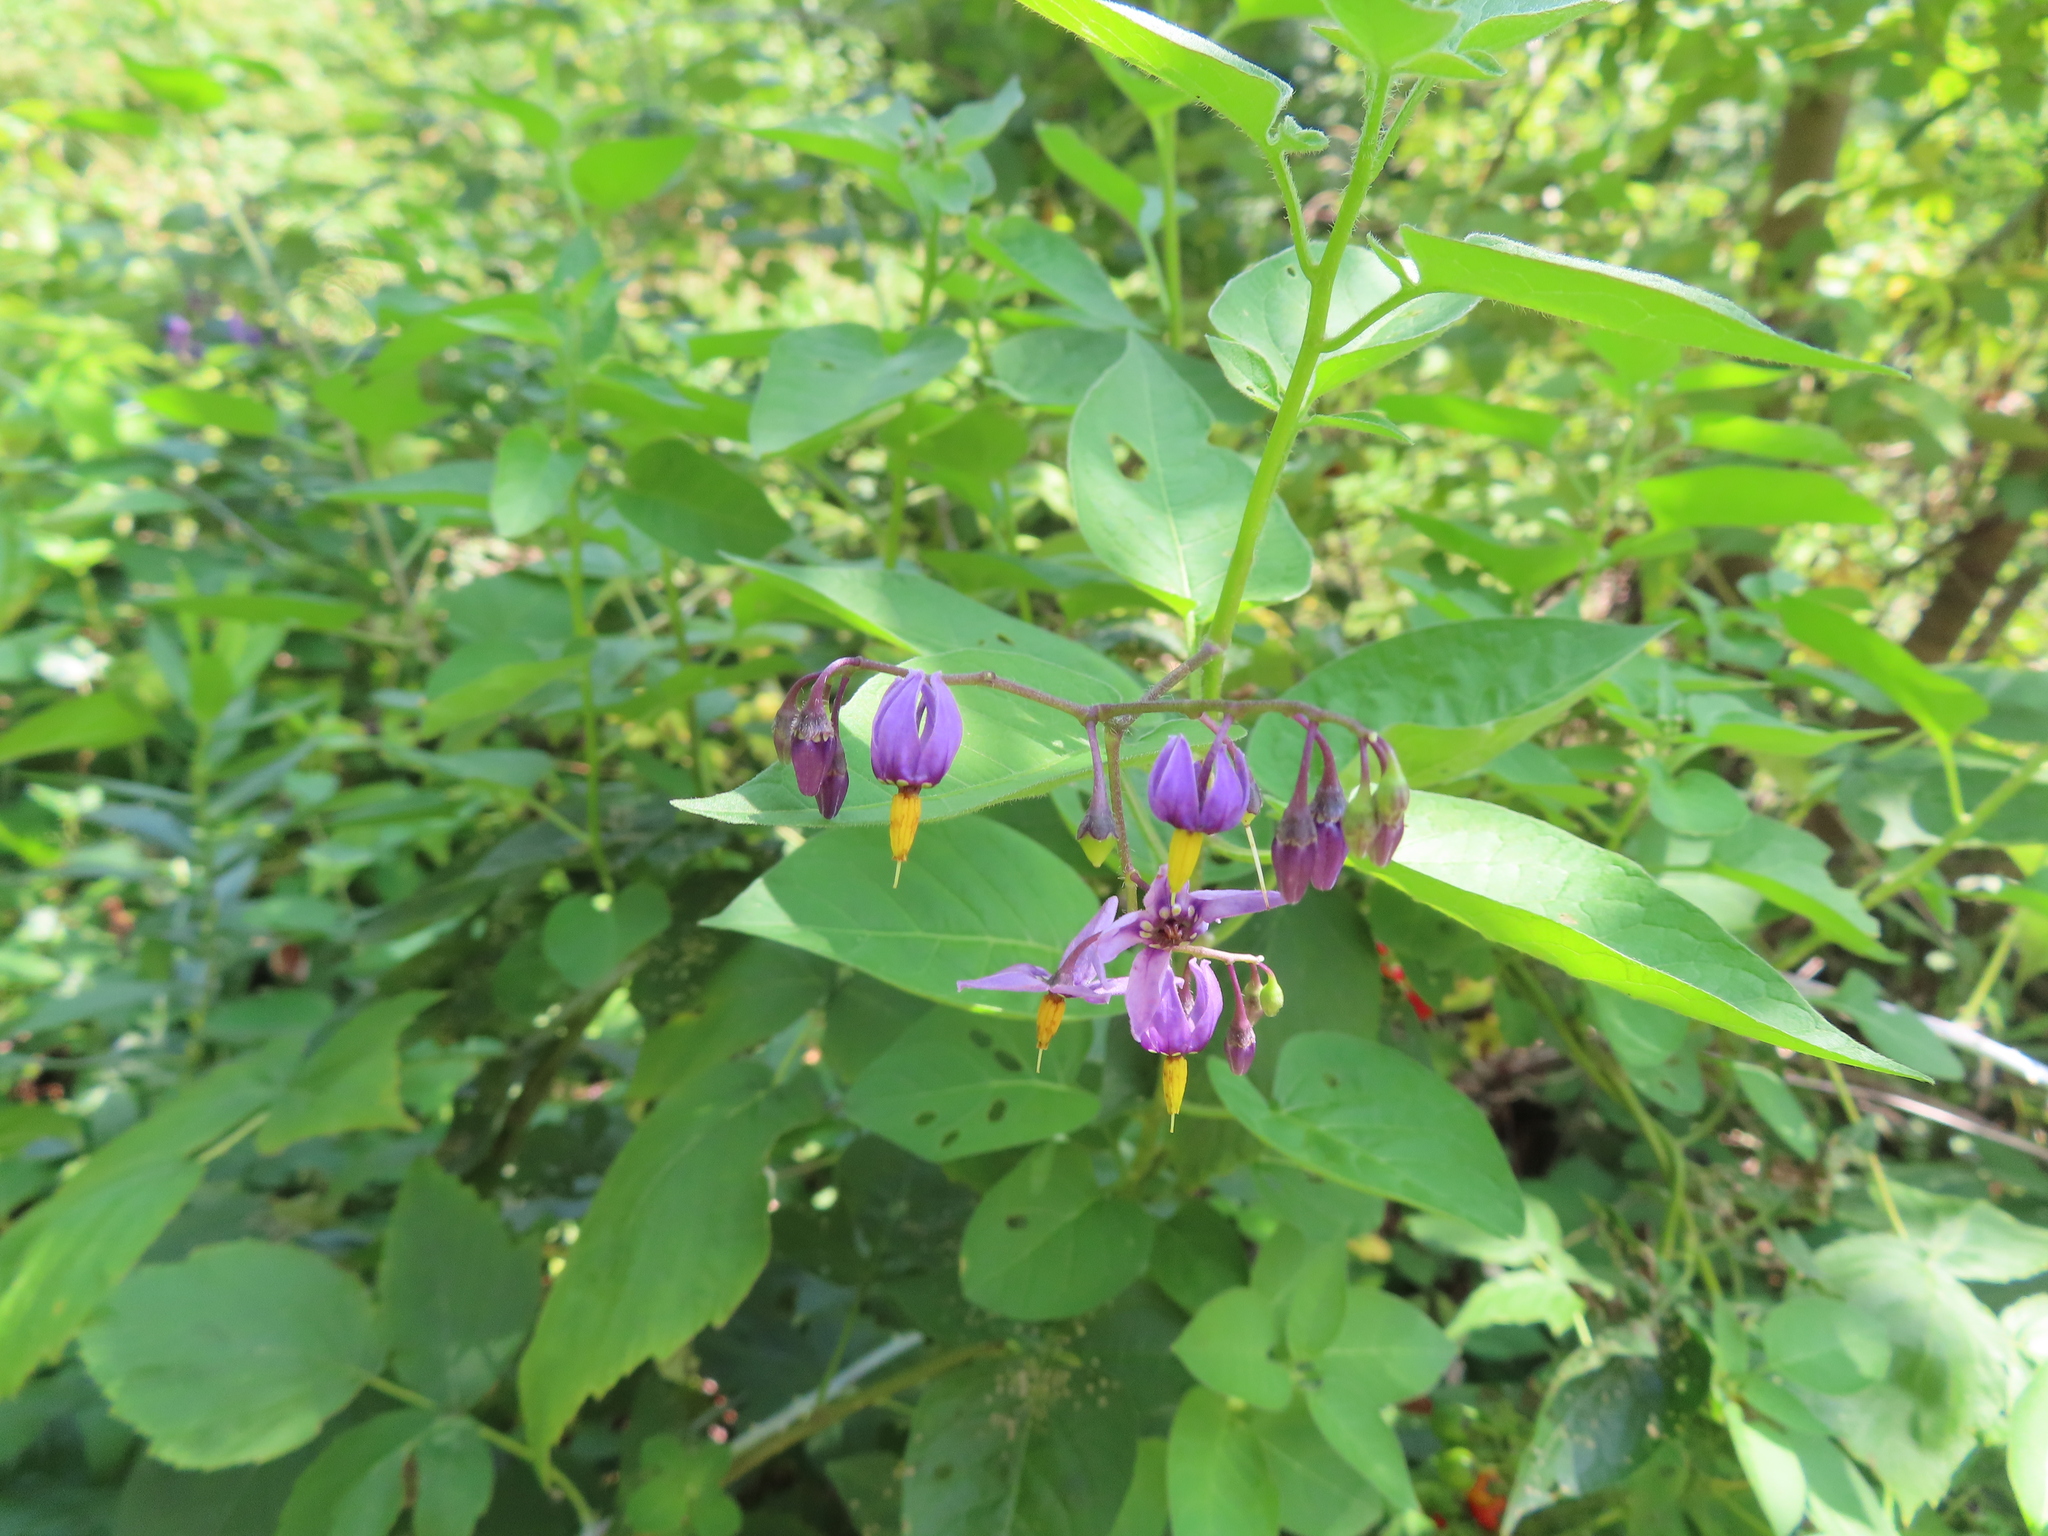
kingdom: Plantae
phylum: Tracheophyta
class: Magnoliopsida
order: Solanales
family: Solanaceae
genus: Solanum
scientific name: Solanum dulcamara
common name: Climbing nightshade
